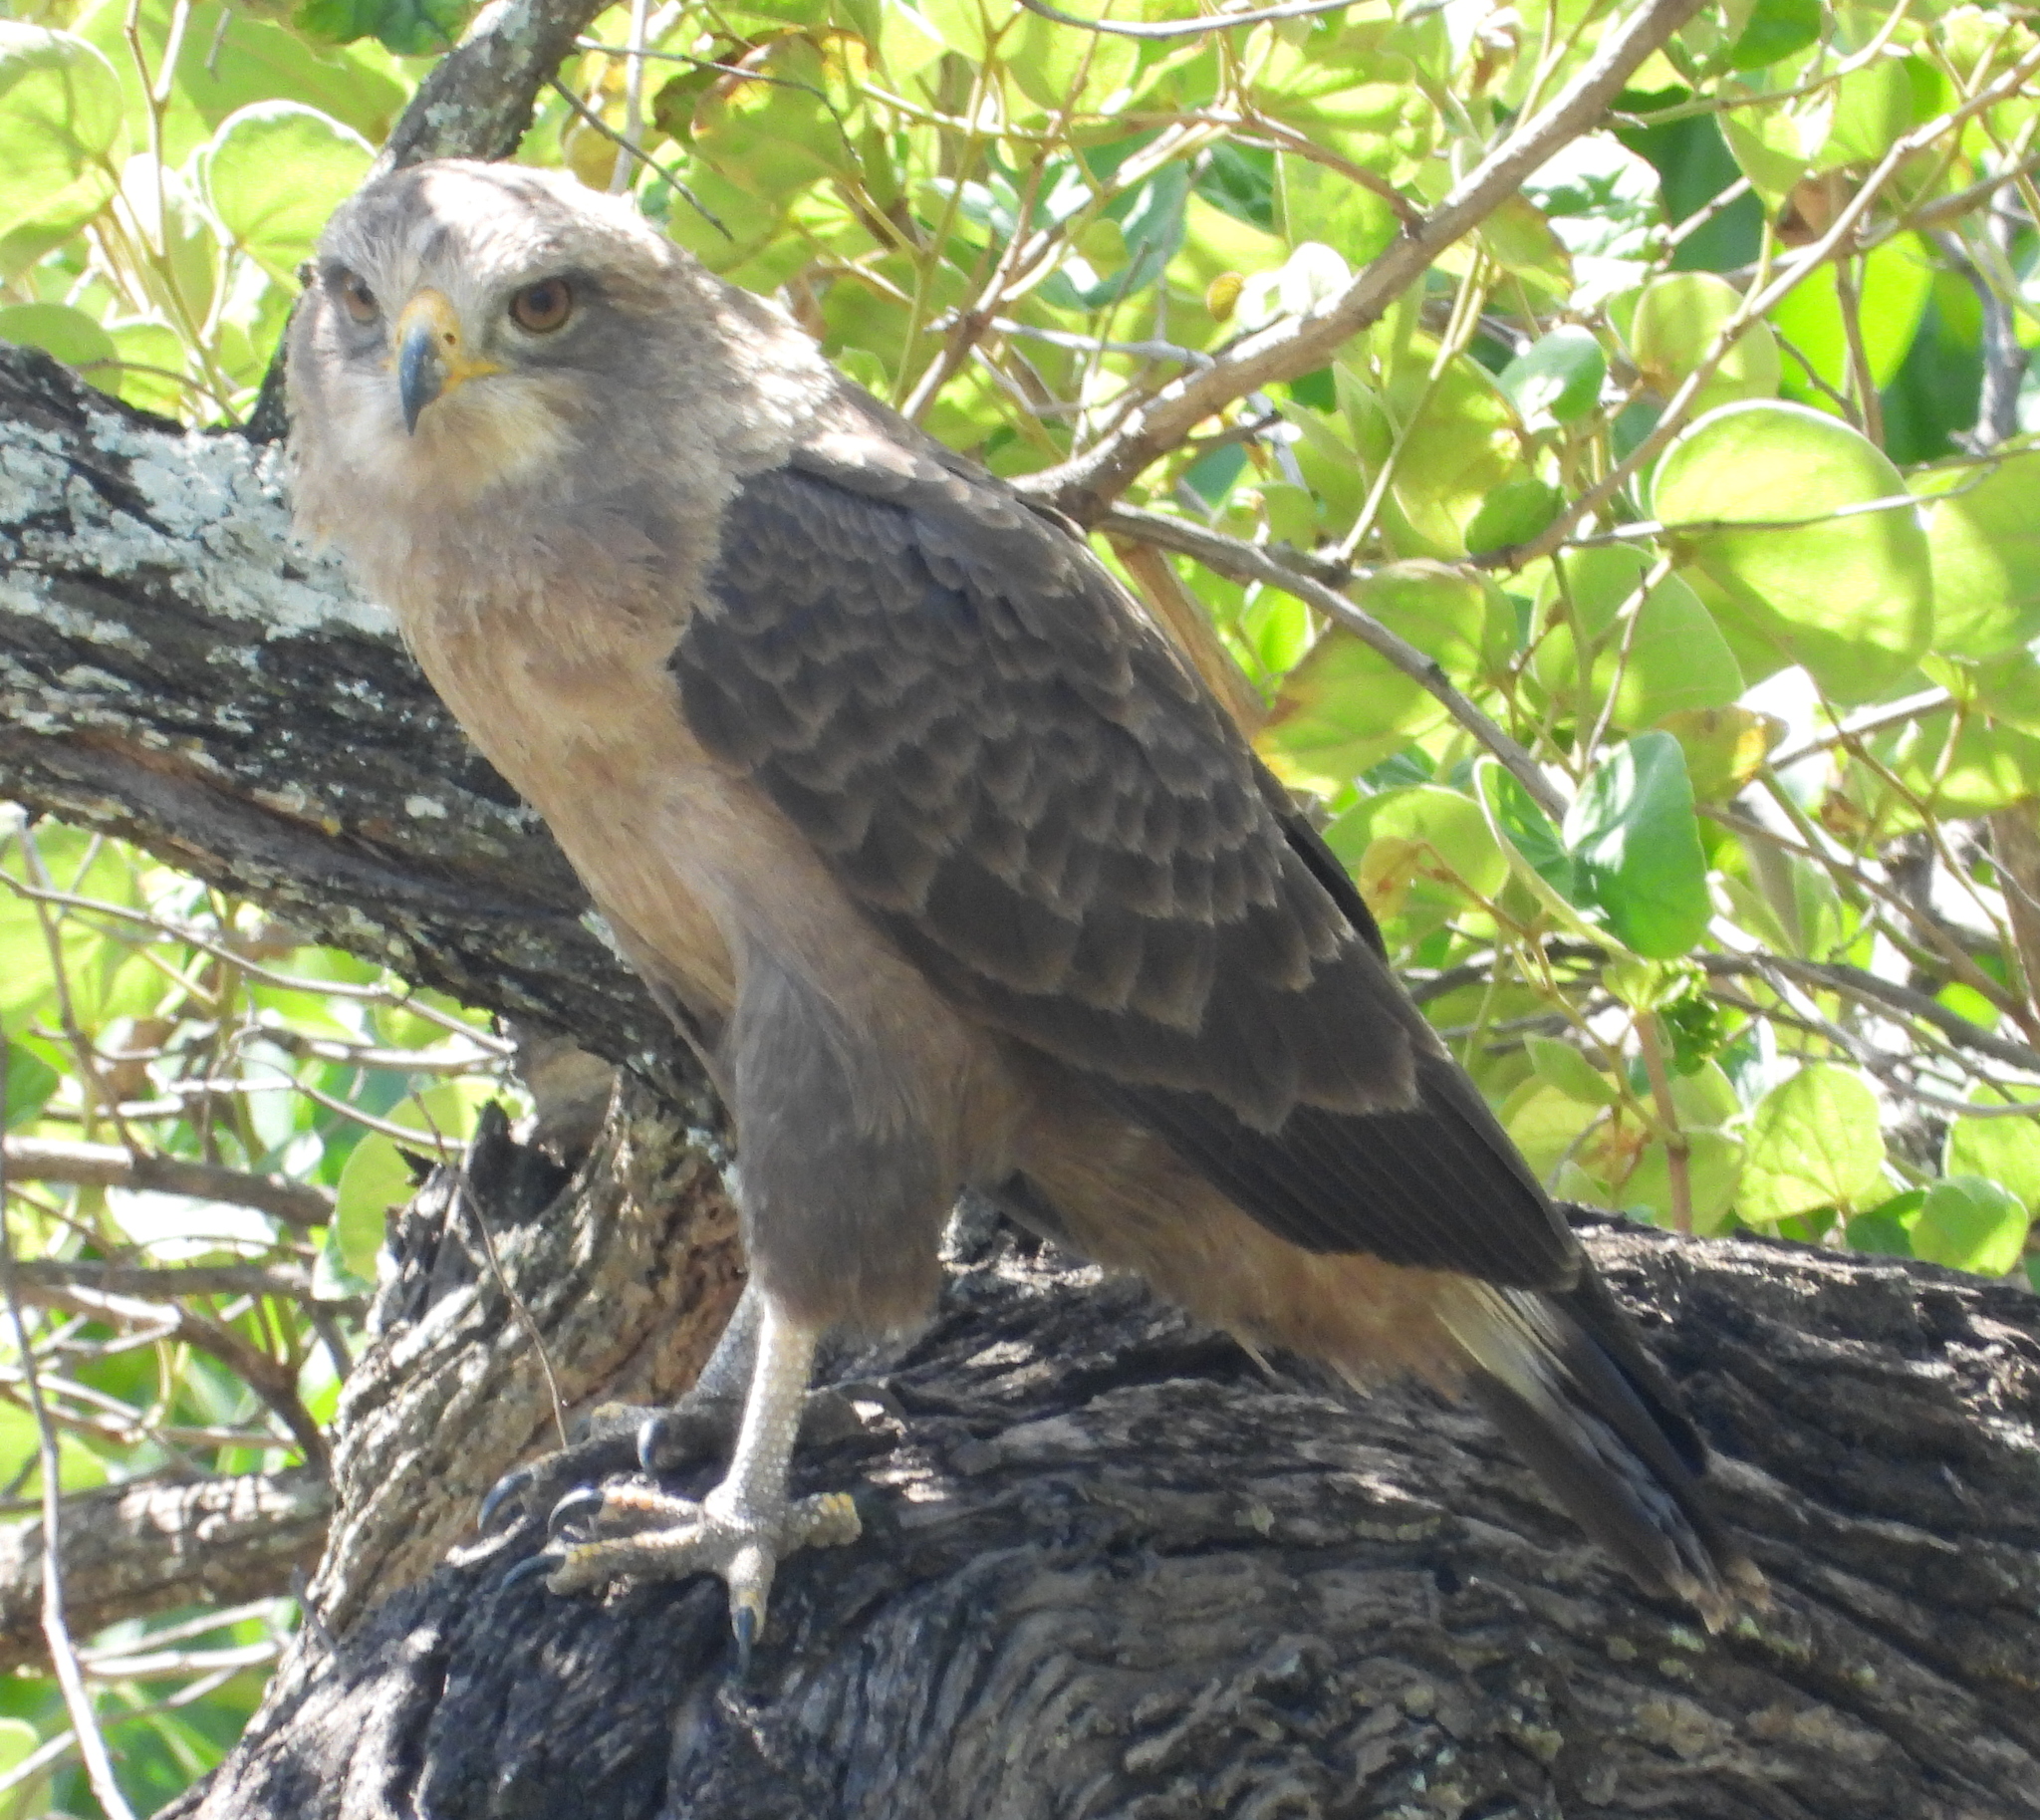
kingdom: Animalia
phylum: Chordata
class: Aves
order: Accipitriformes
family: Accipitridae
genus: Circaetus
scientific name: Circaetus cinerascens
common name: Western banded snake eagle
